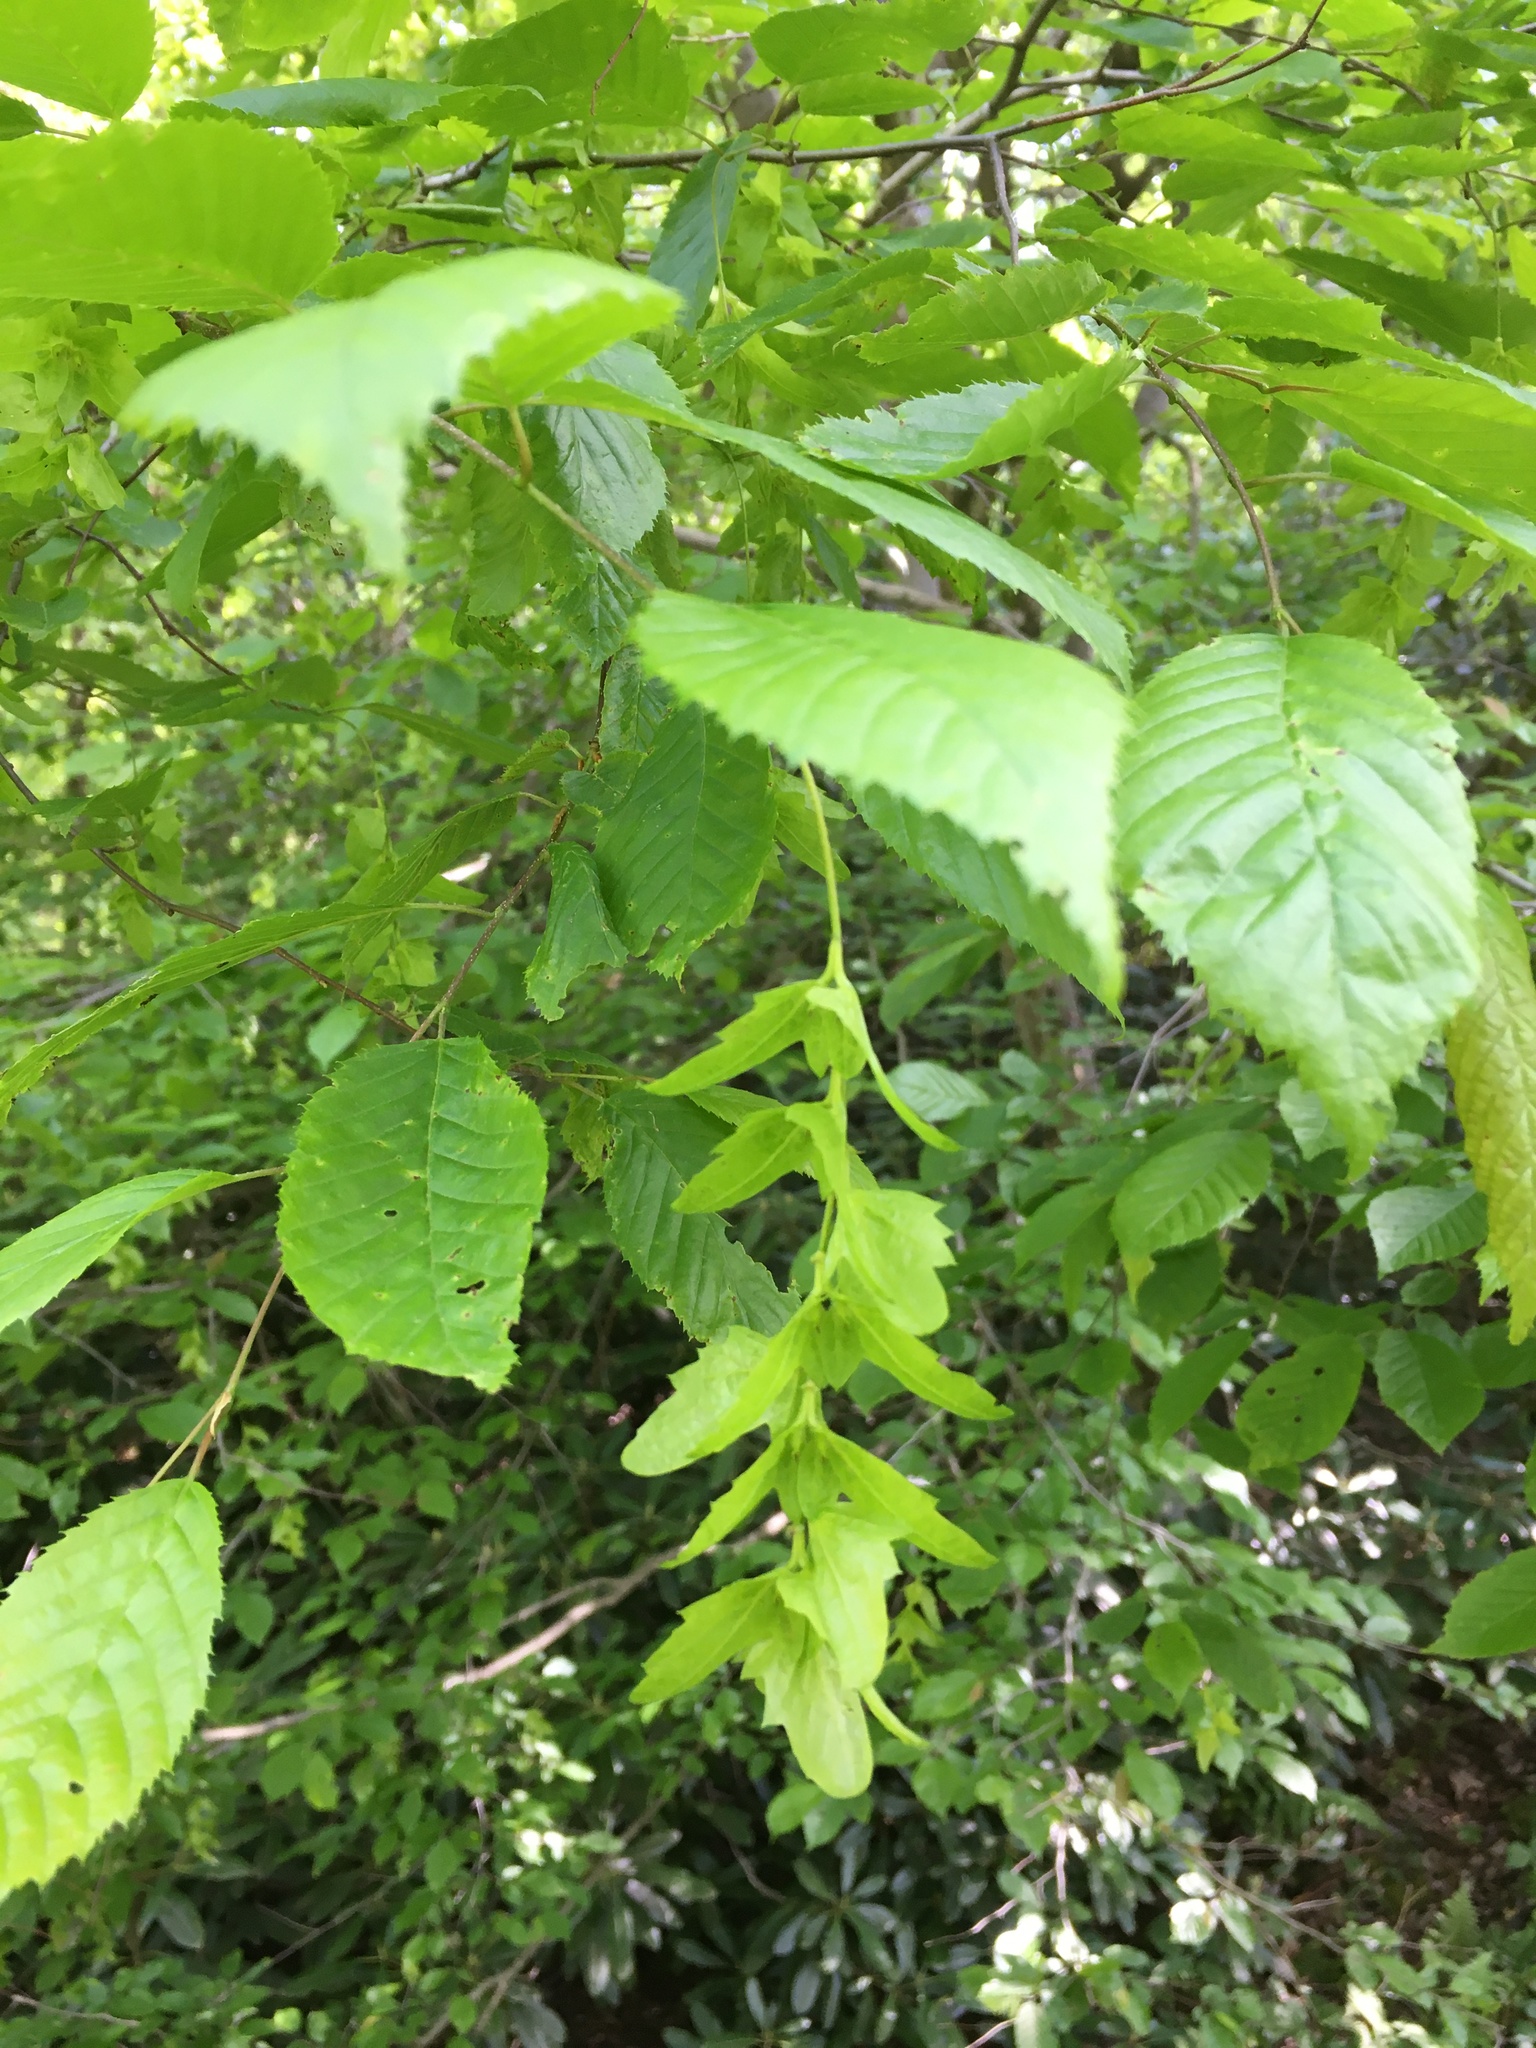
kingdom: Plantae
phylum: Tracheophyta
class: Magnoliopsida
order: Fagales
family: Betulaceae
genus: Carpinus
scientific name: Carpinus caroliniana
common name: American hornbeam
